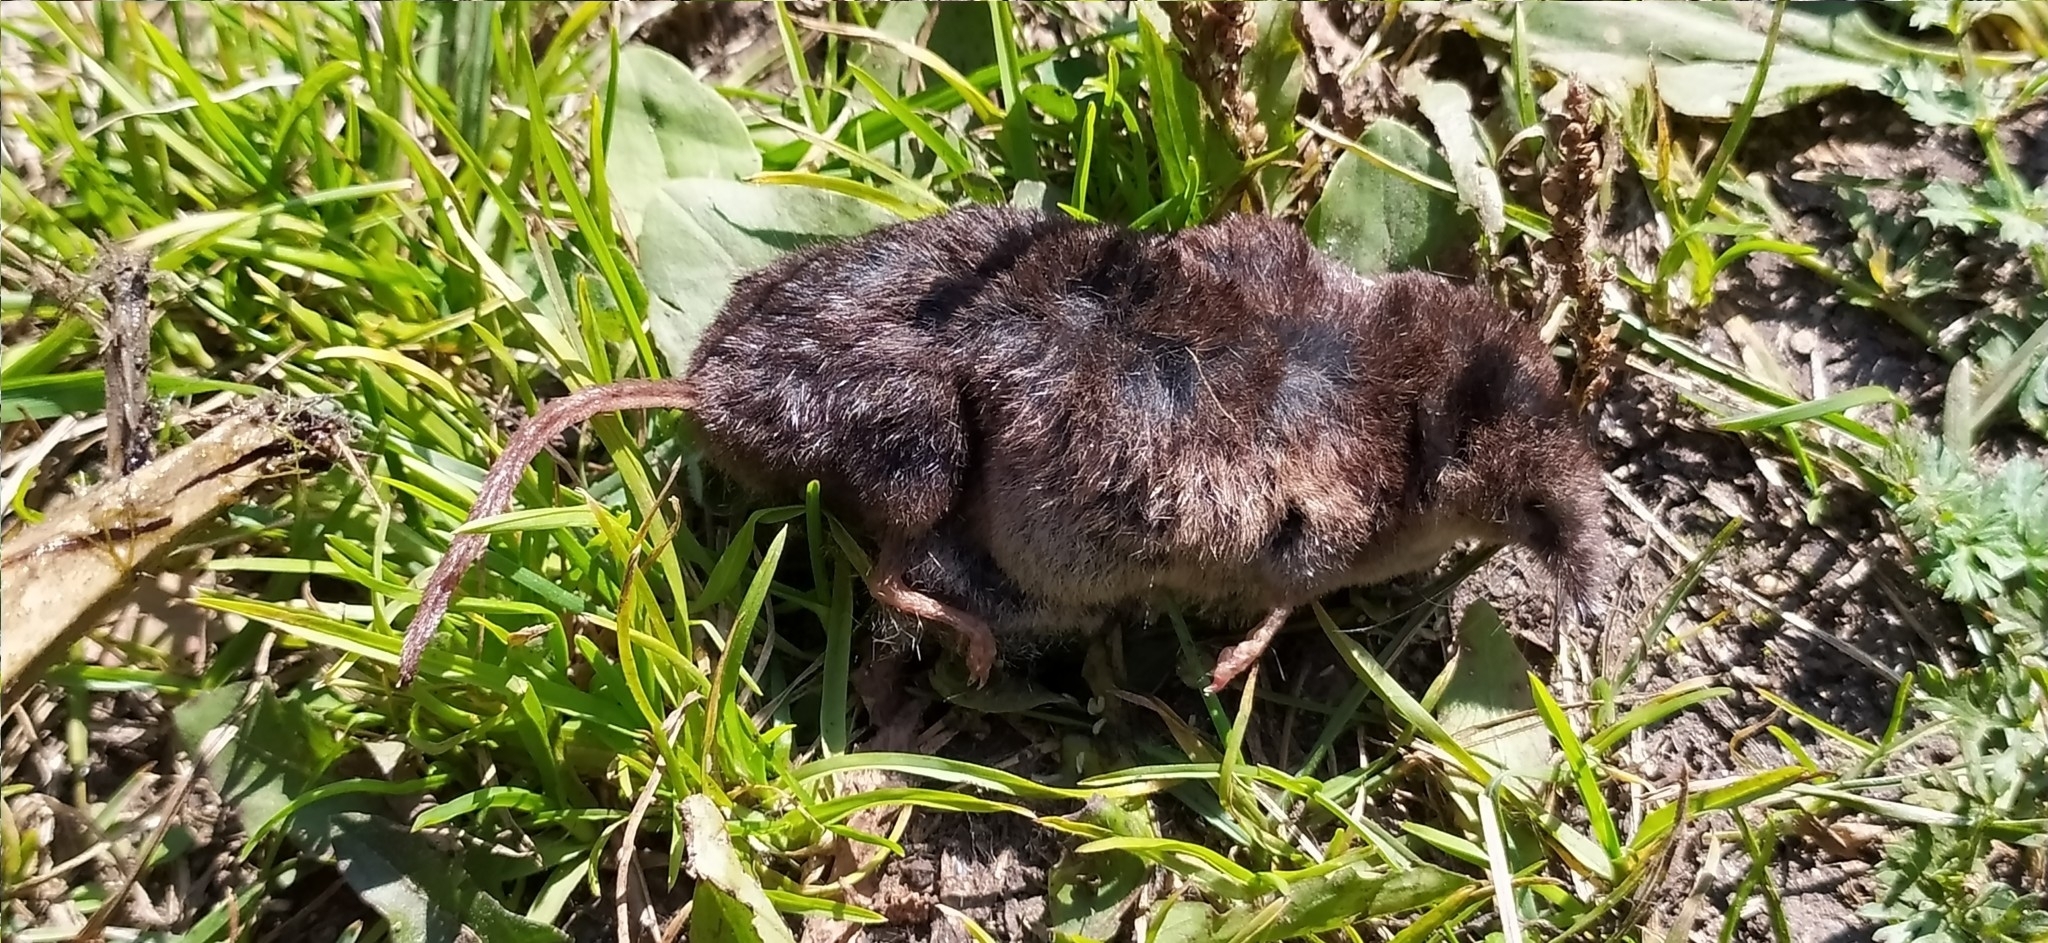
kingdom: Animalia
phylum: Chordata
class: Mammalia
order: Soricomorpha
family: Soricidae
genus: Sorex
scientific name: Sorex araneus
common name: Common shrew
